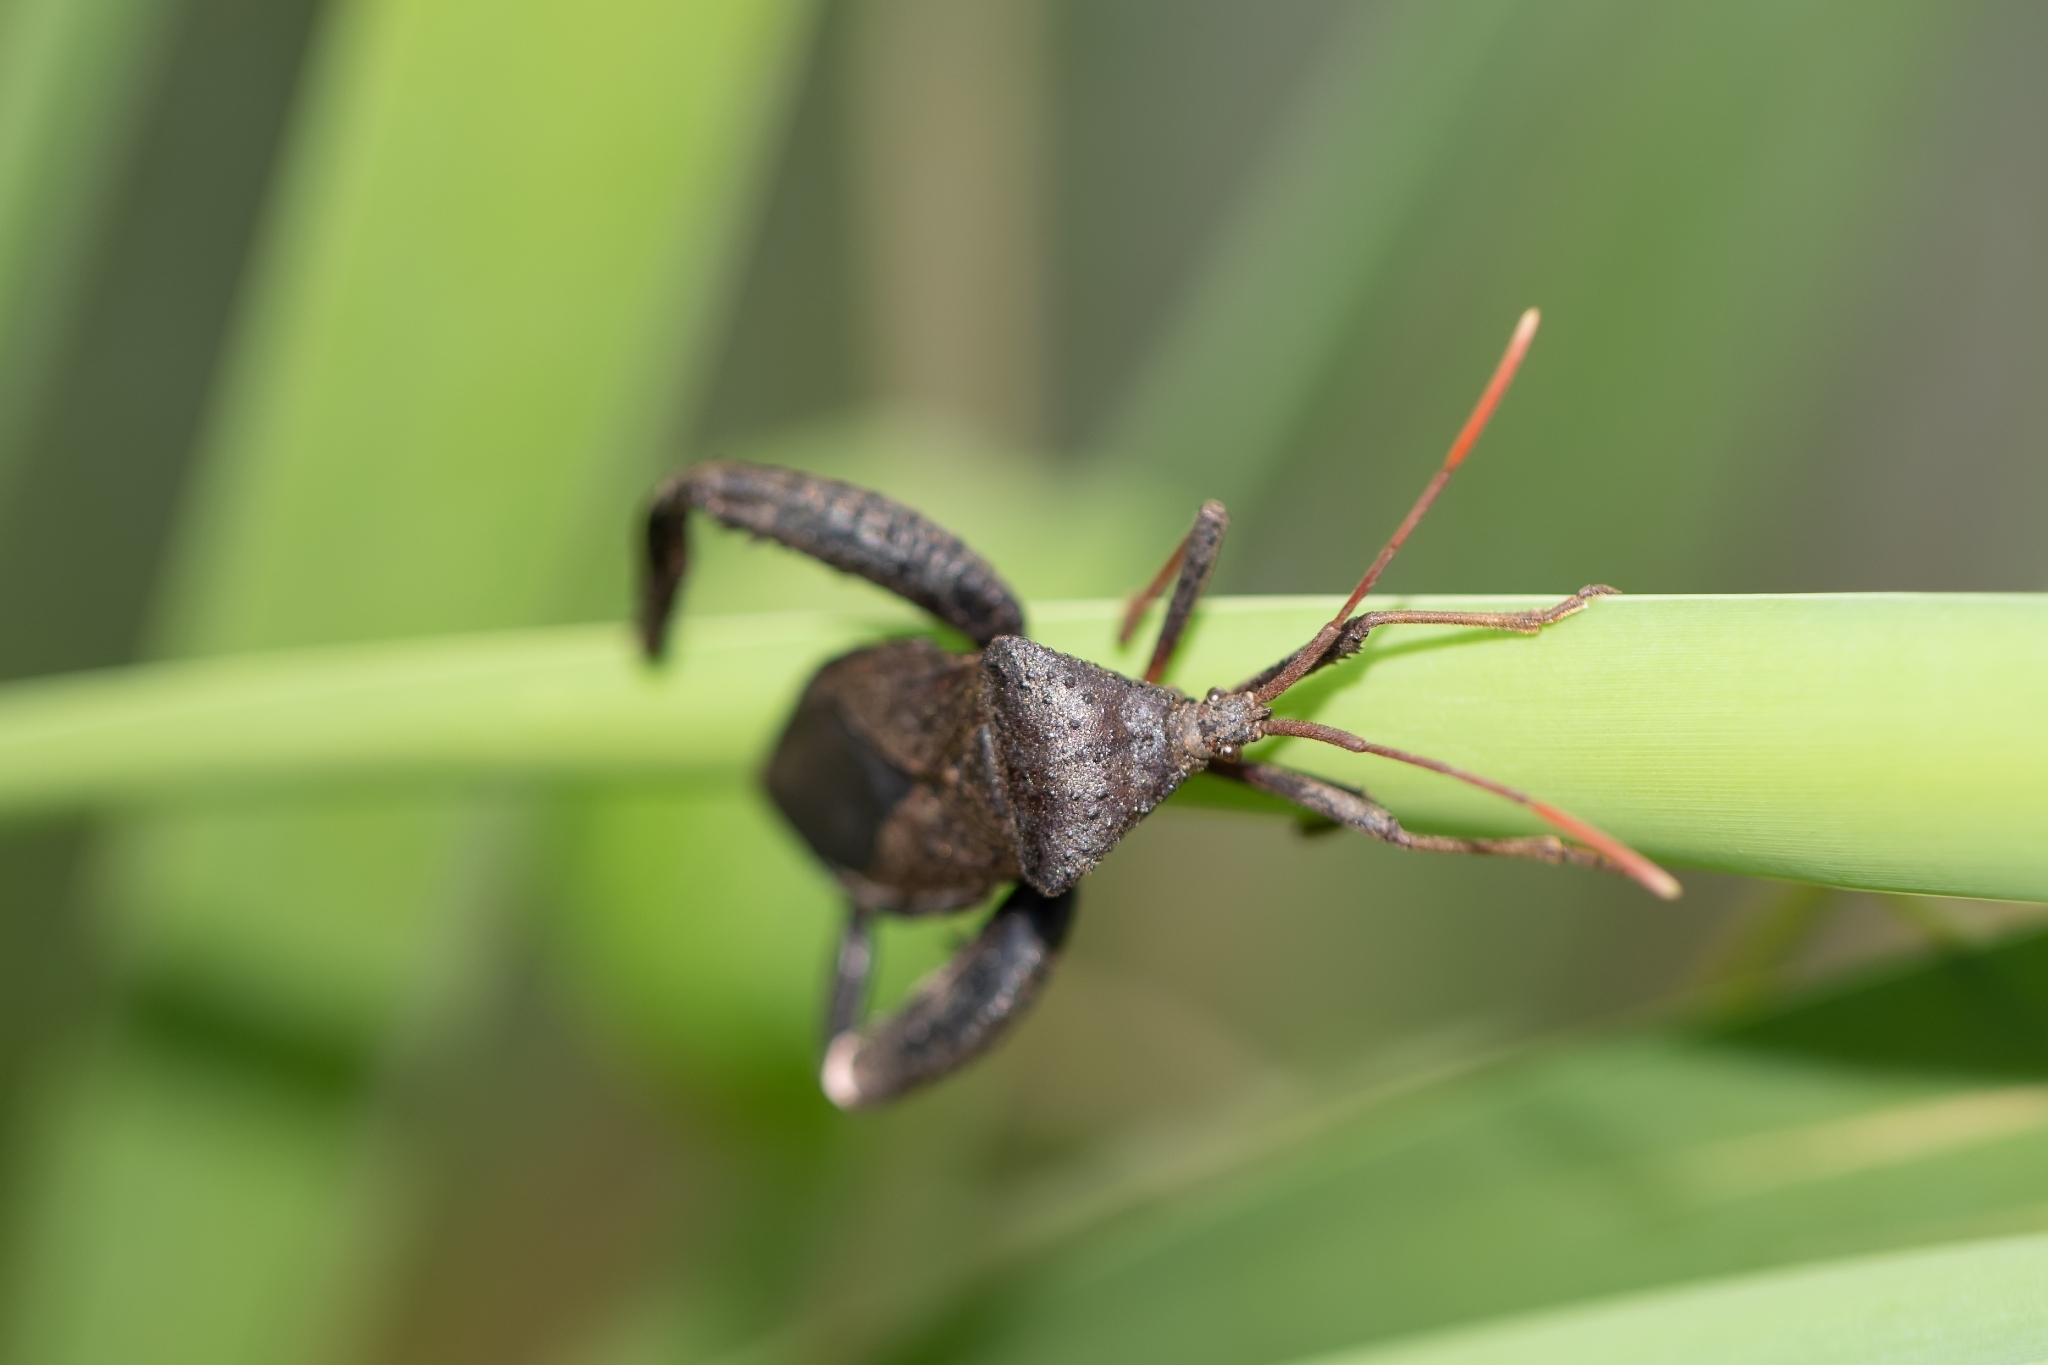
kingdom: Animalia
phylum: Arthropoda
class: Insecta
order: Hemiptera
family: Coreidae
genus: Acanthocephala
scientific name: Acanthocephala femorata
